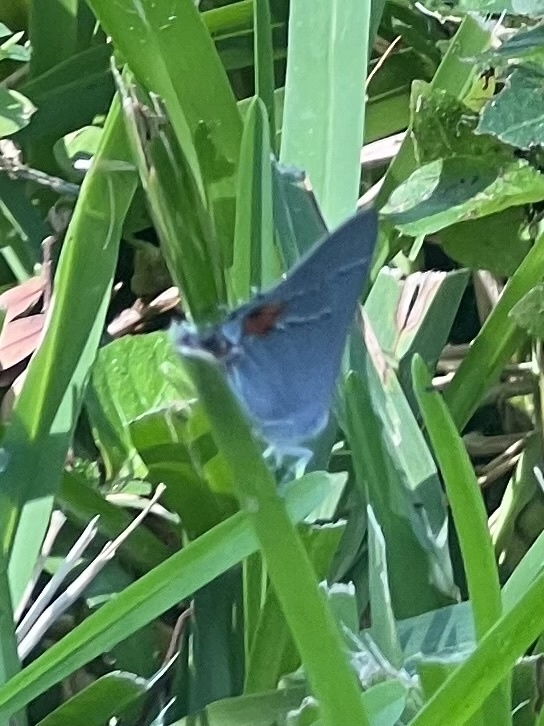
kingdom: Animalia
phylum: Arthropoda
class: Insecta
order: Lepidoptera
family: Lycaenidae
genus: Strymon
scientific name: Strymon melinus
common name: Gray hairstreak
